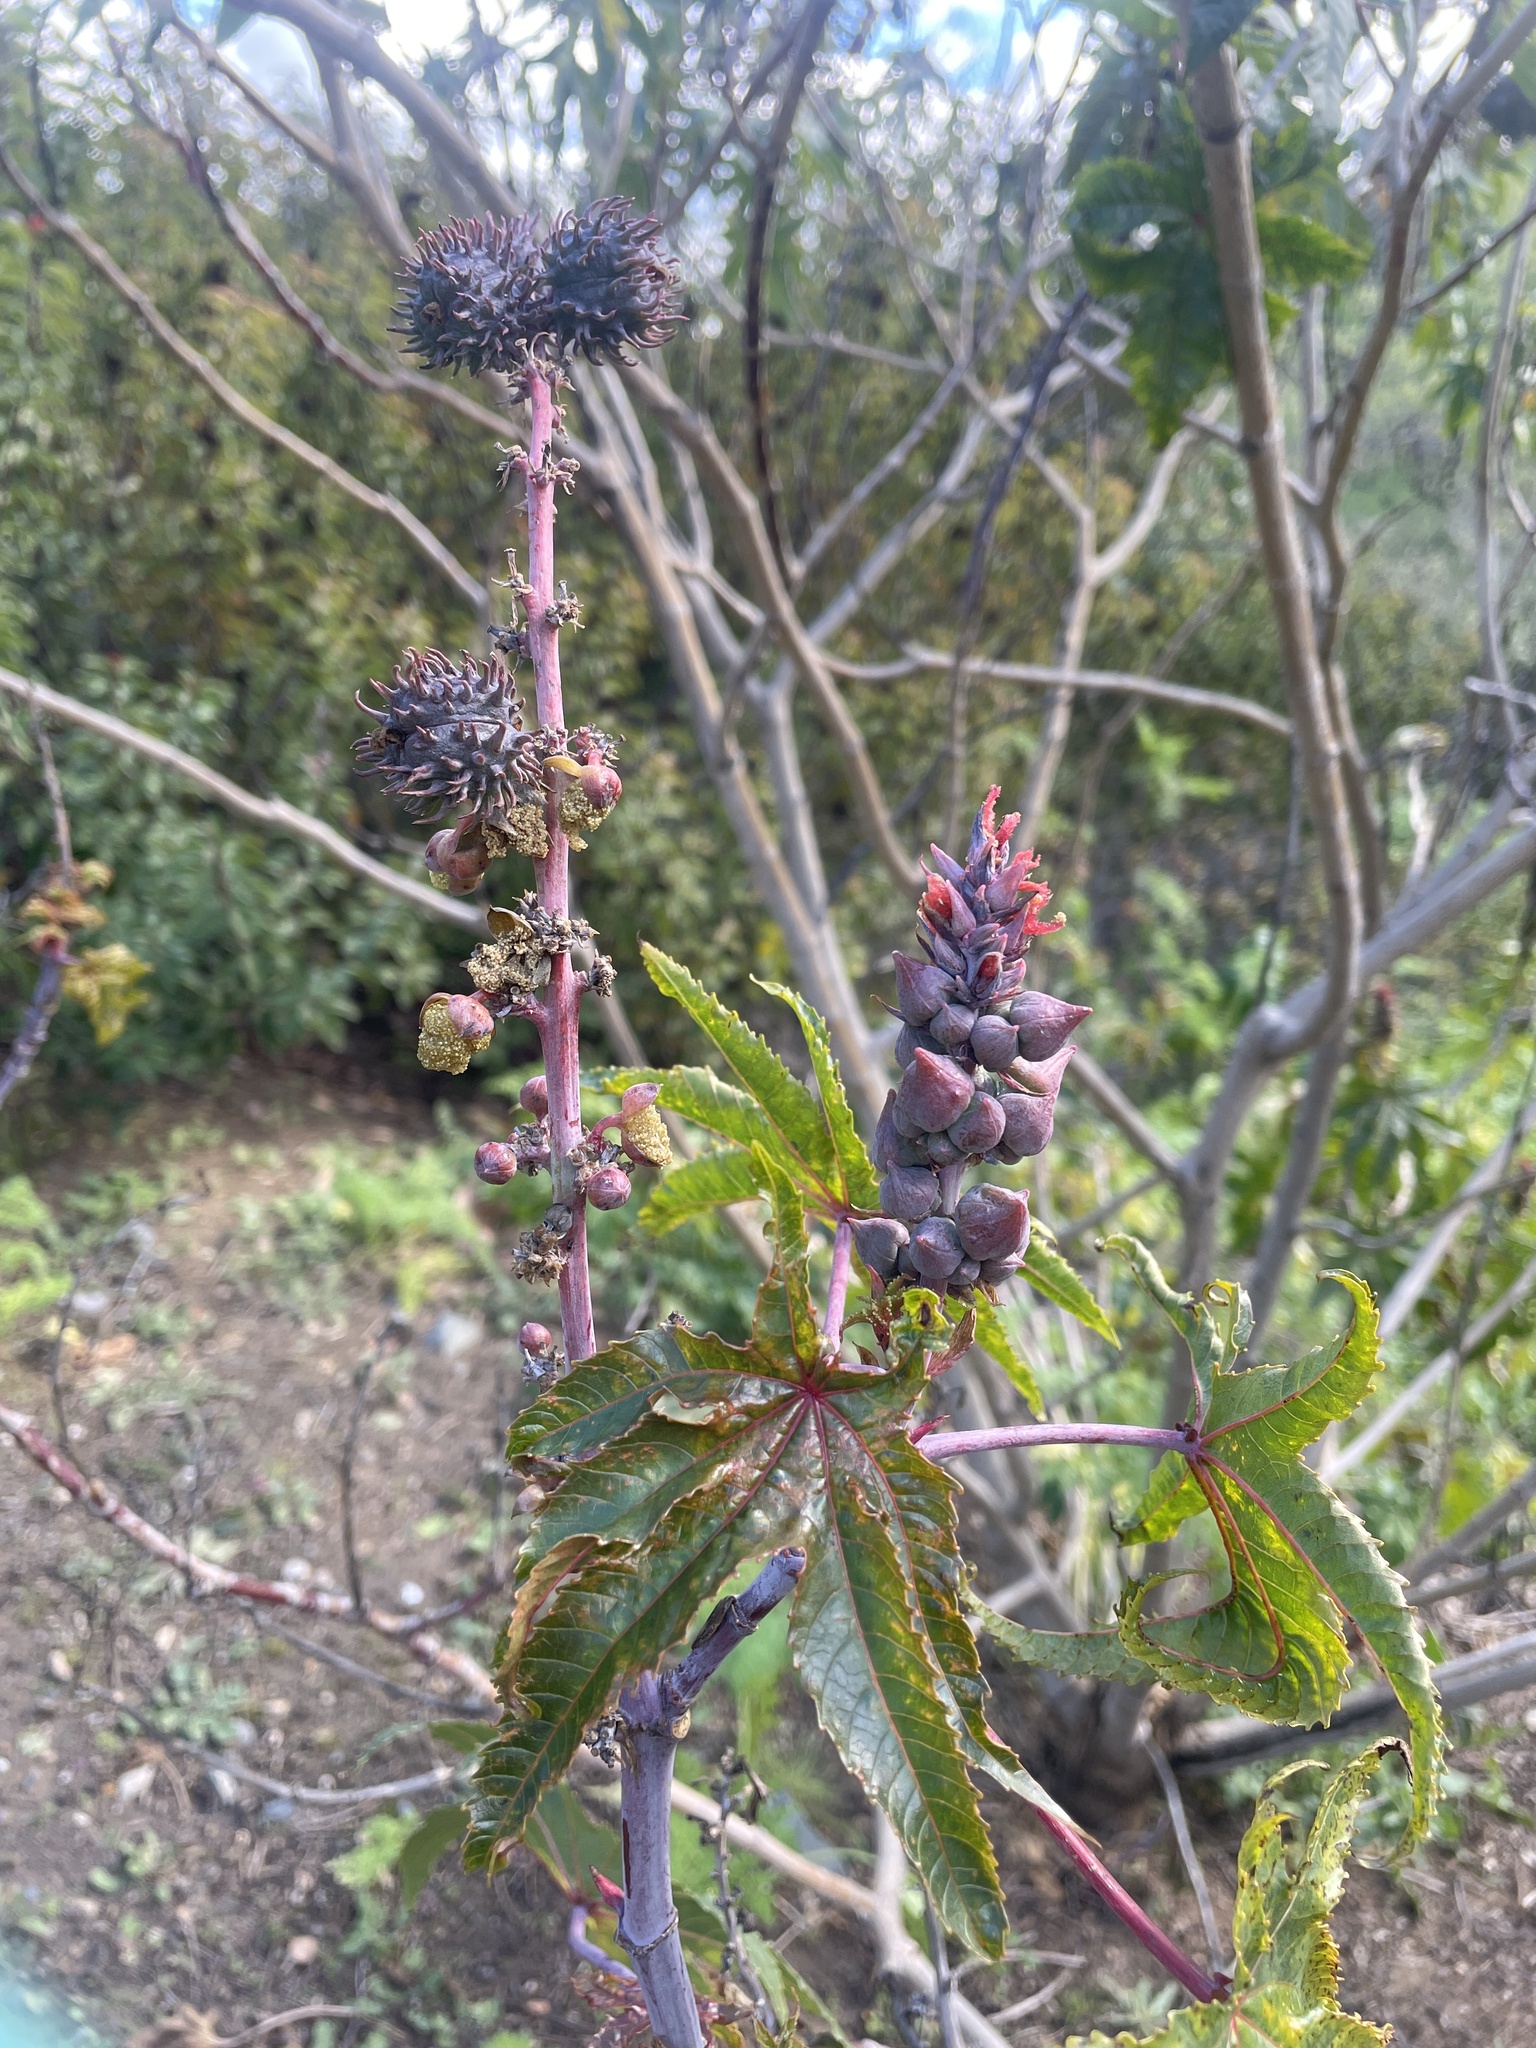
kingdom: Plantae
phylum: Tracheophyta
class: Magnoliopsida
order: Malpighiales
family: Euphorbiaceae
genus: Ricinus
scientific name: Ricinus communis
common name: Castor-oil-plant
